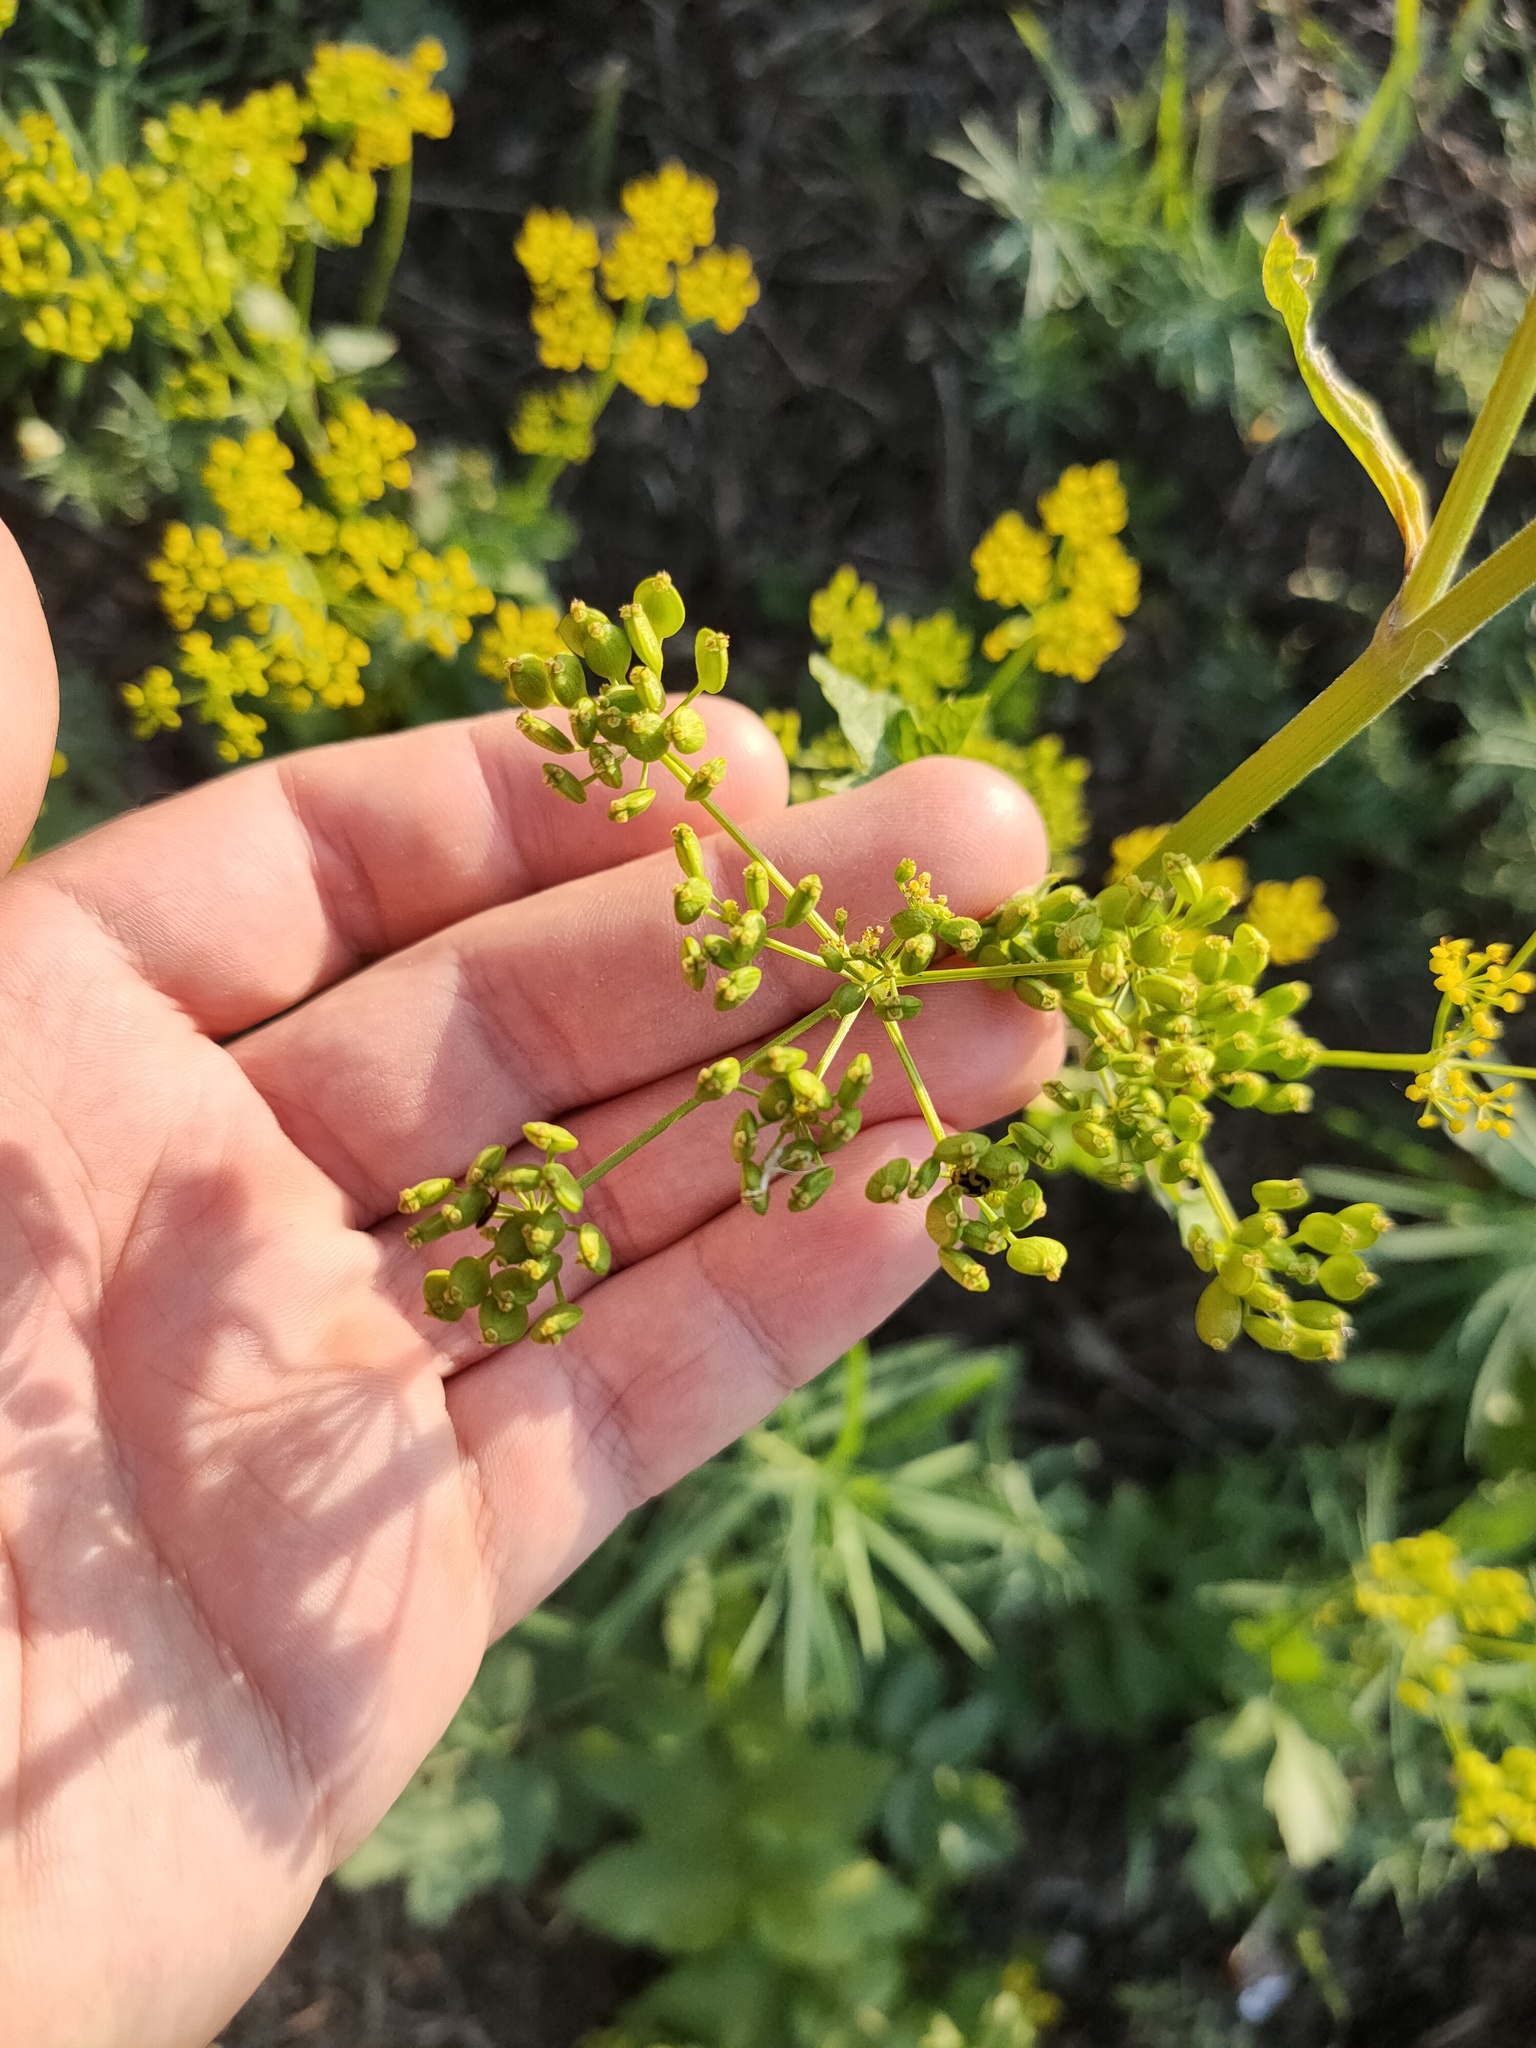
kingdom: Plantae
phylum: Tracheophyta
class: Magnoliopsida
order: Apiales
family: Apiaceae
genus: Pastinaca
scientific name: Pastinaca sativa
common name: Wild parsnip
